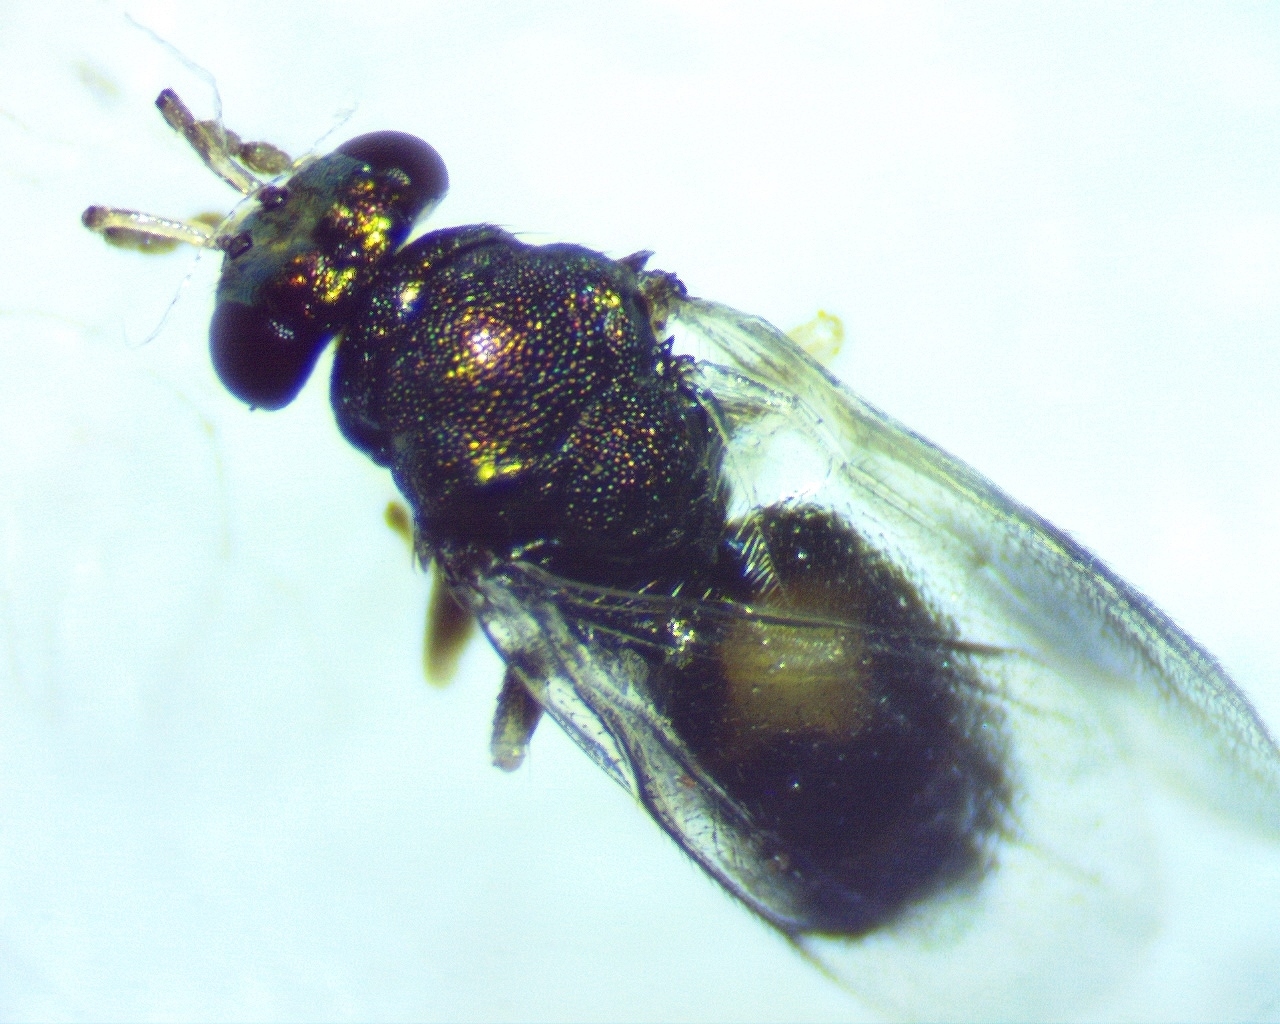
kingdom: Animalia
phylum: Arthropoda
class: Insecta
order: Hymenoptera
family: Eulophidae
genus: Eulophus
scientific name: Eulophus
